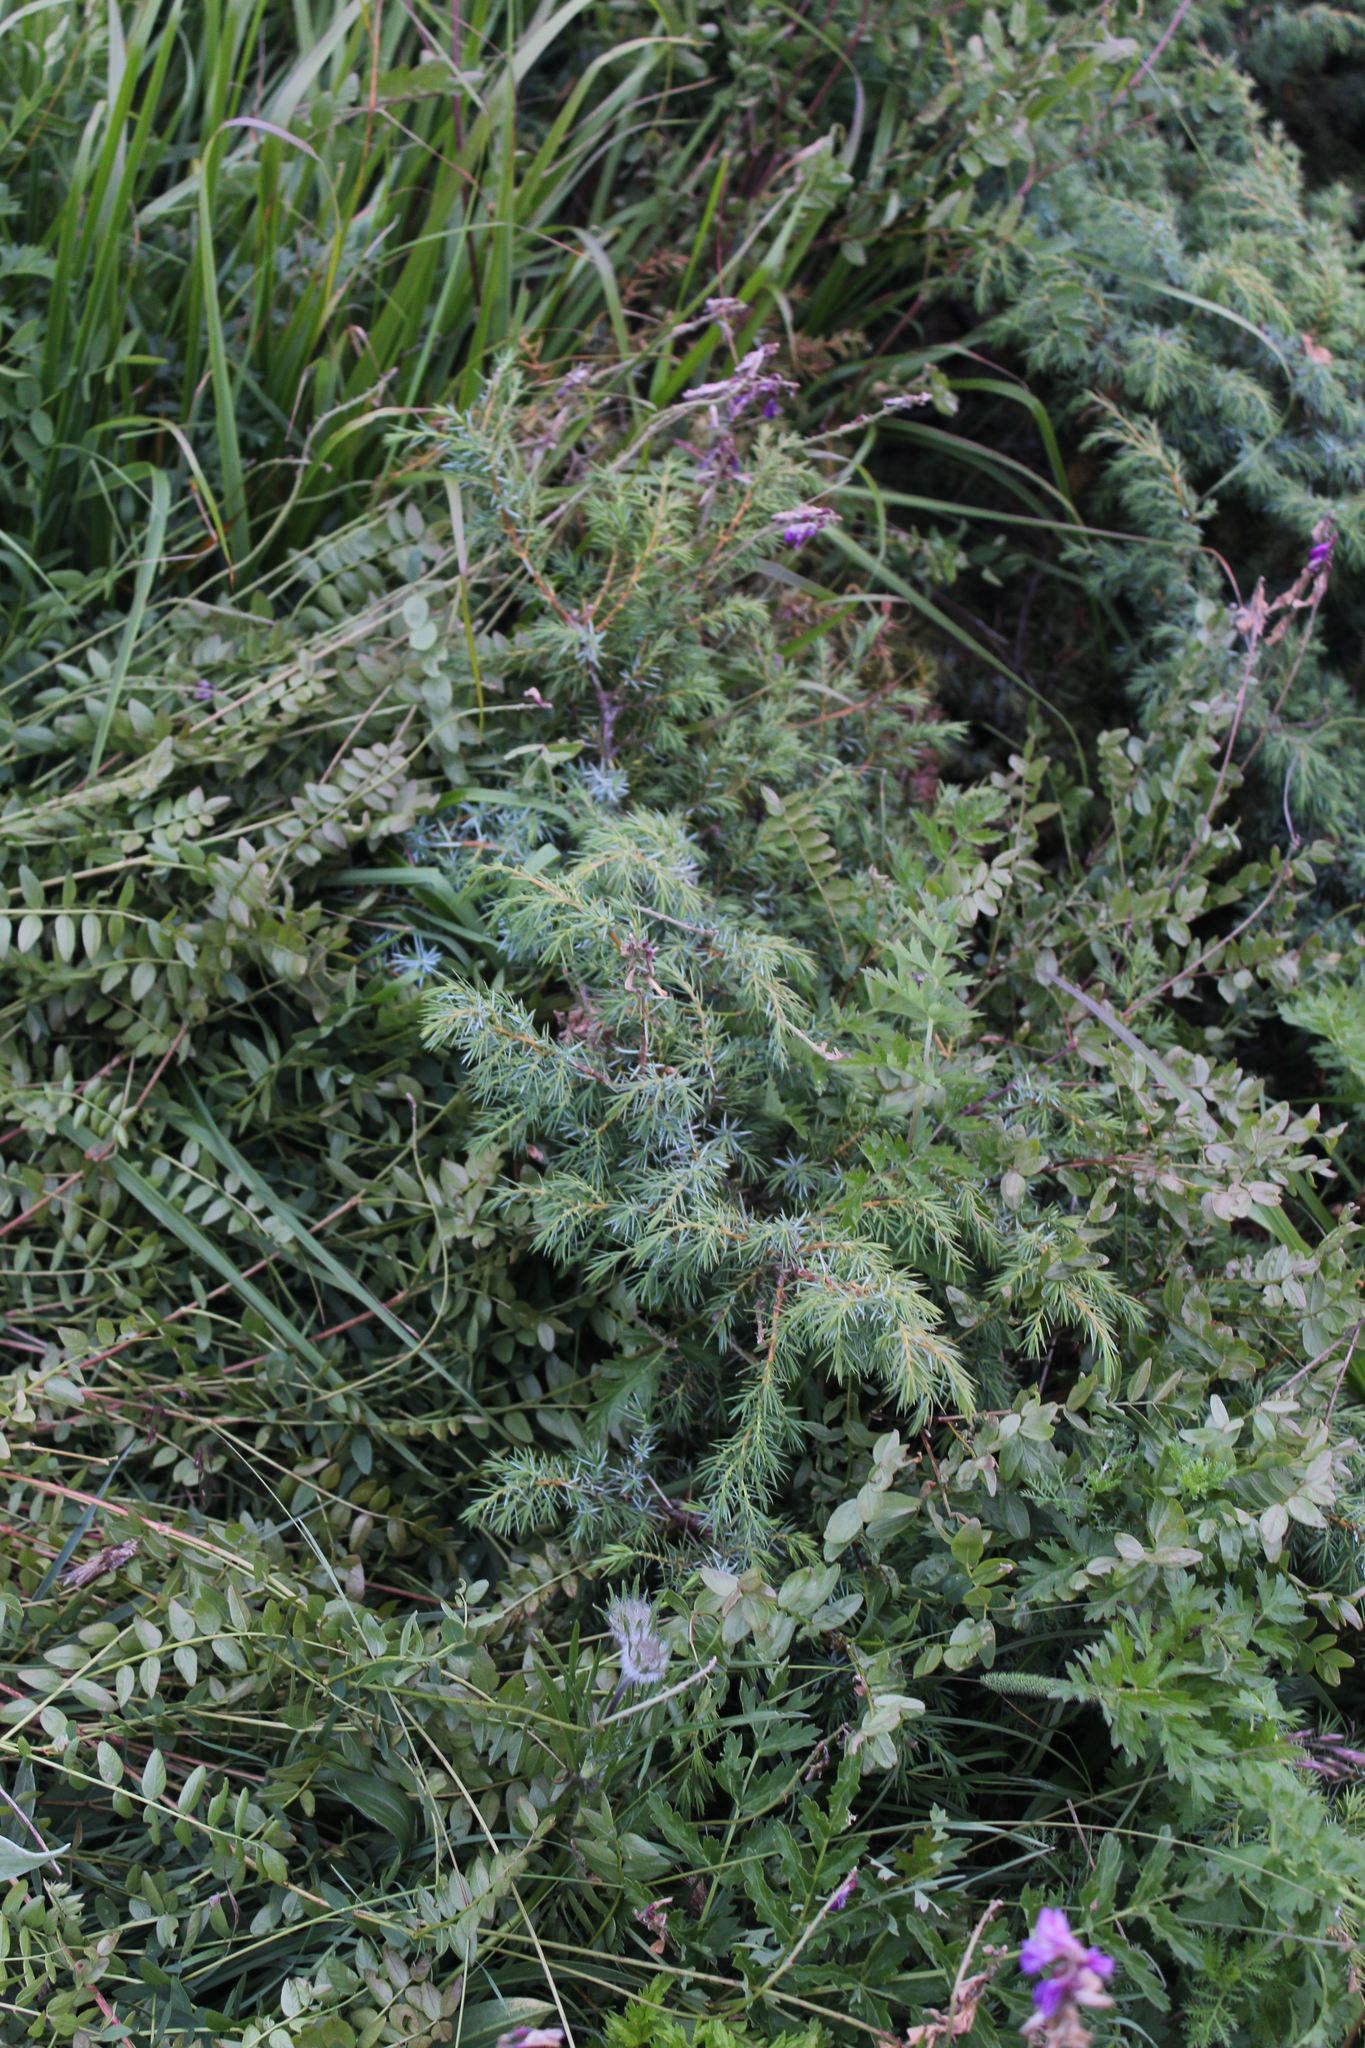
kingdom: Plantae
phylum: Tracheophyta
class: Pinopsida
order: Pinales
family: Cupressaceae
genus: Juniperus
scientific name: Juniperus communis
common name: Common juniper
